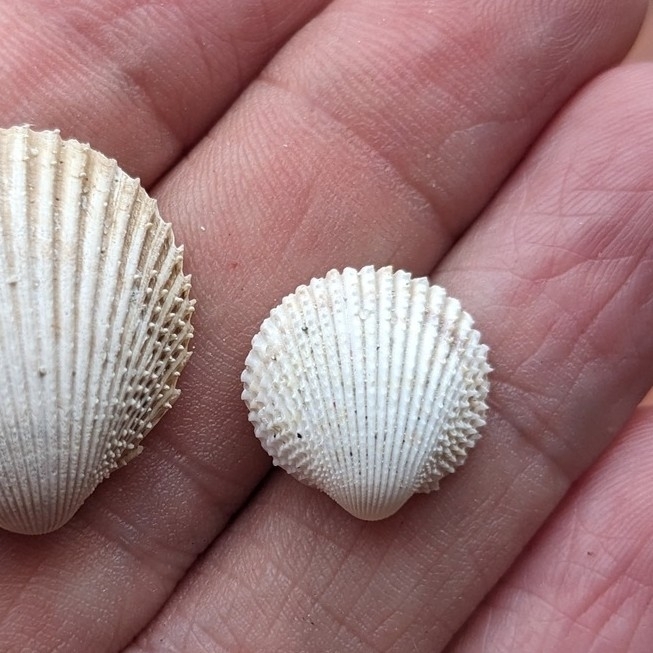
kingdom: Animalia
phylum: Mollusca
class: Bivalvia
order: Cardiida
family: Cardiidae
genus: Trachycardium
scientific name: Trachycardium egmontianum
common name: Florida pricklycockle
